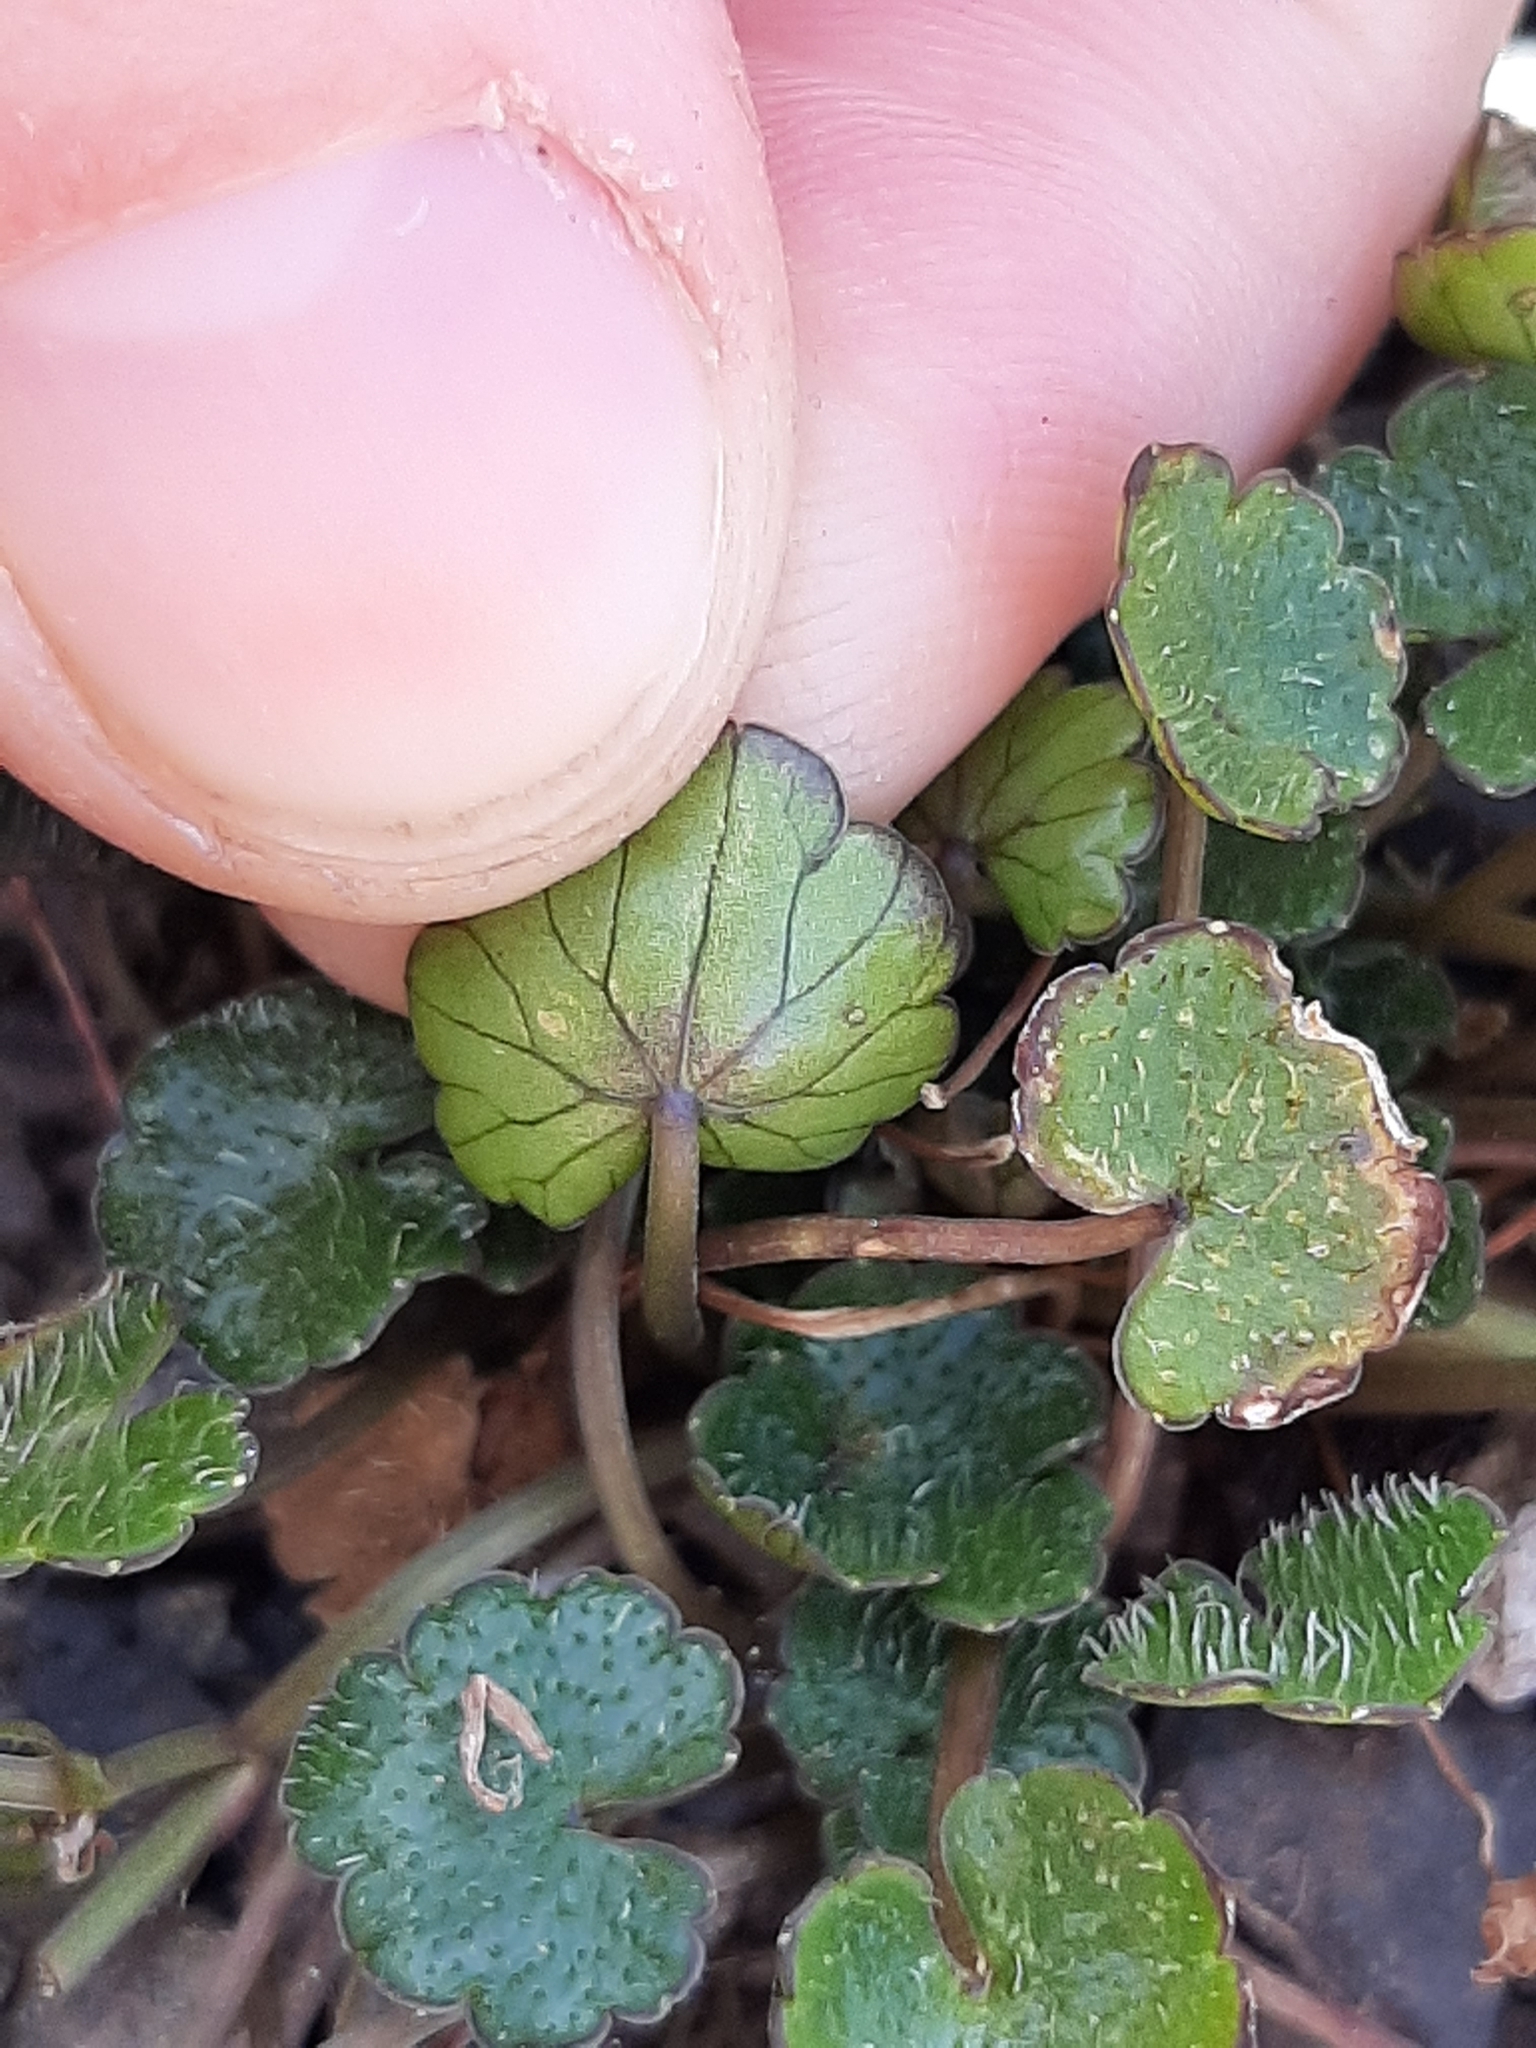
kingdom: Plantae
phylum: Tracheophyta
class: Magnoliopsida
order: Apiales
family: Apiaceae
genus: Azorella
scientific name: Azorella haastii
